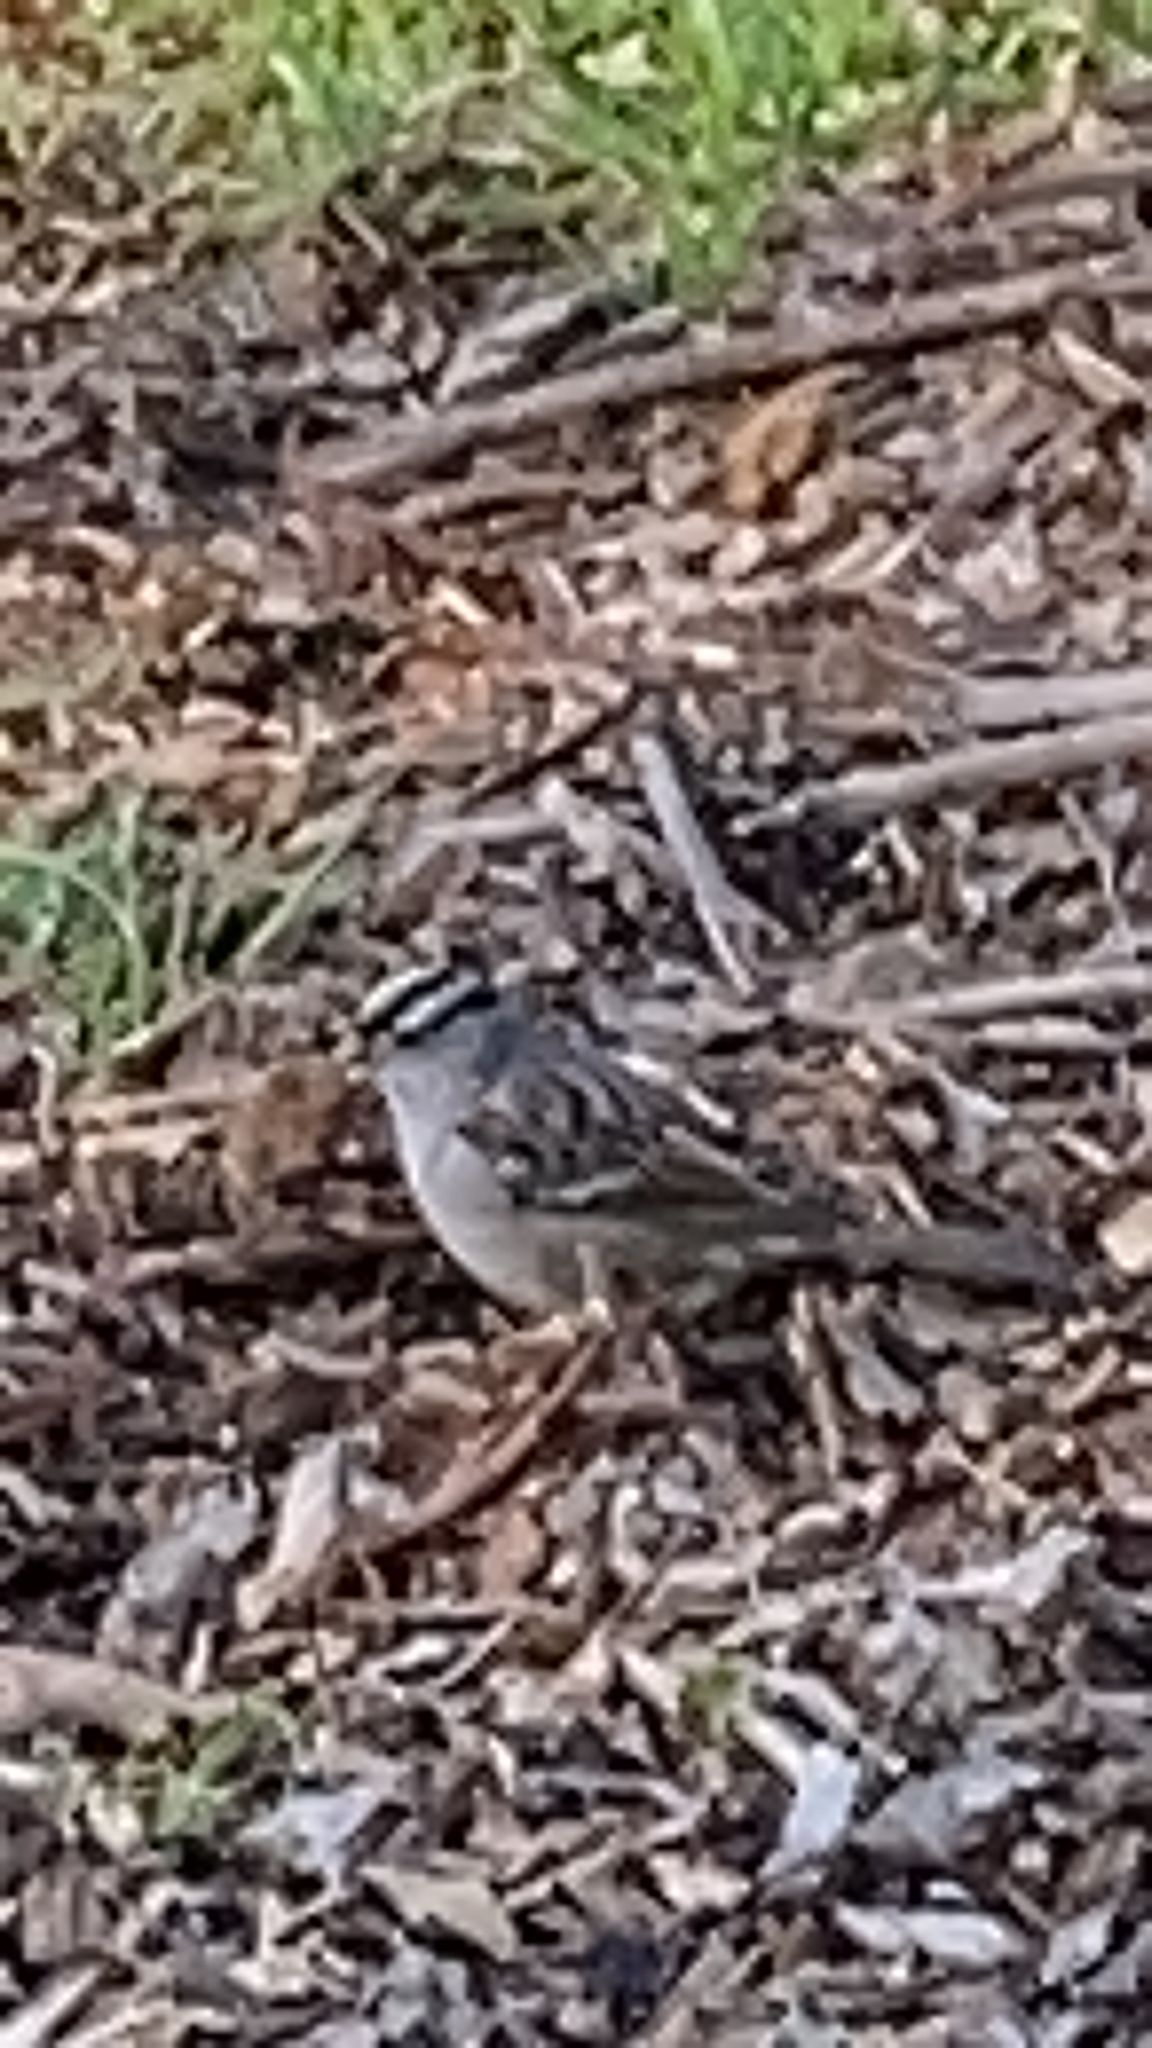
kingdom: Animalia
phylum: Chordata
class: Aves
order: Passeriformes
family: Passerellidae
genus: Zonotrichia
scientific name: Zonotrichia leucophrys
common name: White-crowned sparrow
